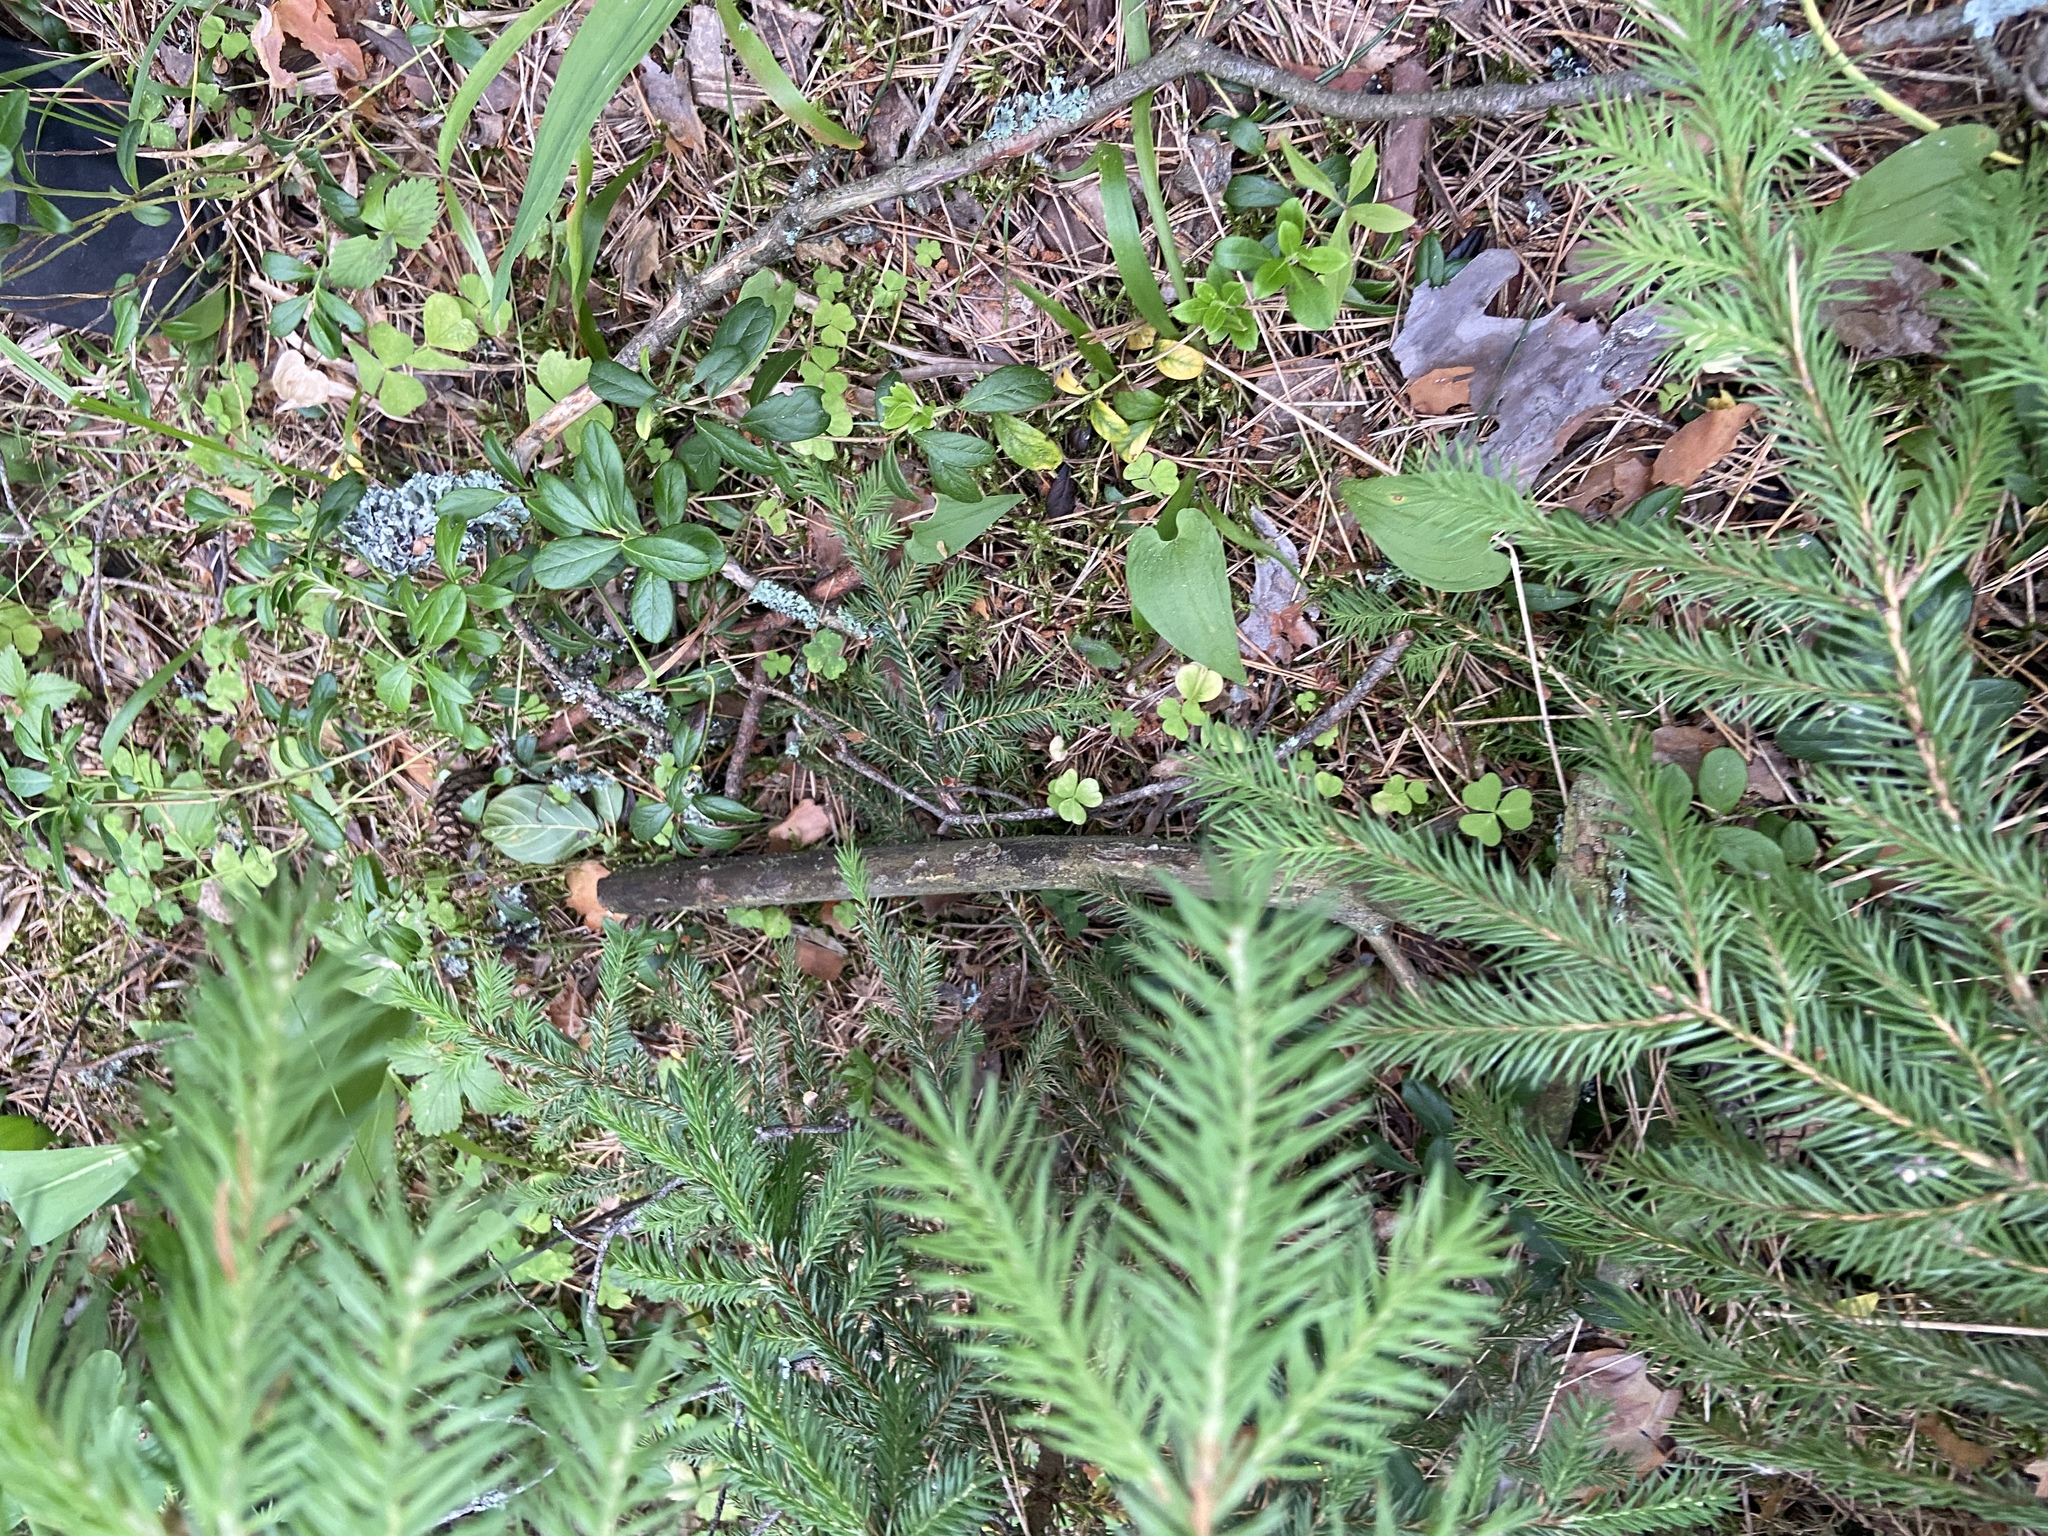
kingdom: Plantae
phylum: Tracheophyta
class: Pinopsida
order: Pinales
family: Pinaceae
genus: Picea
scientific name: Picea abies
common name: Norway spruce
